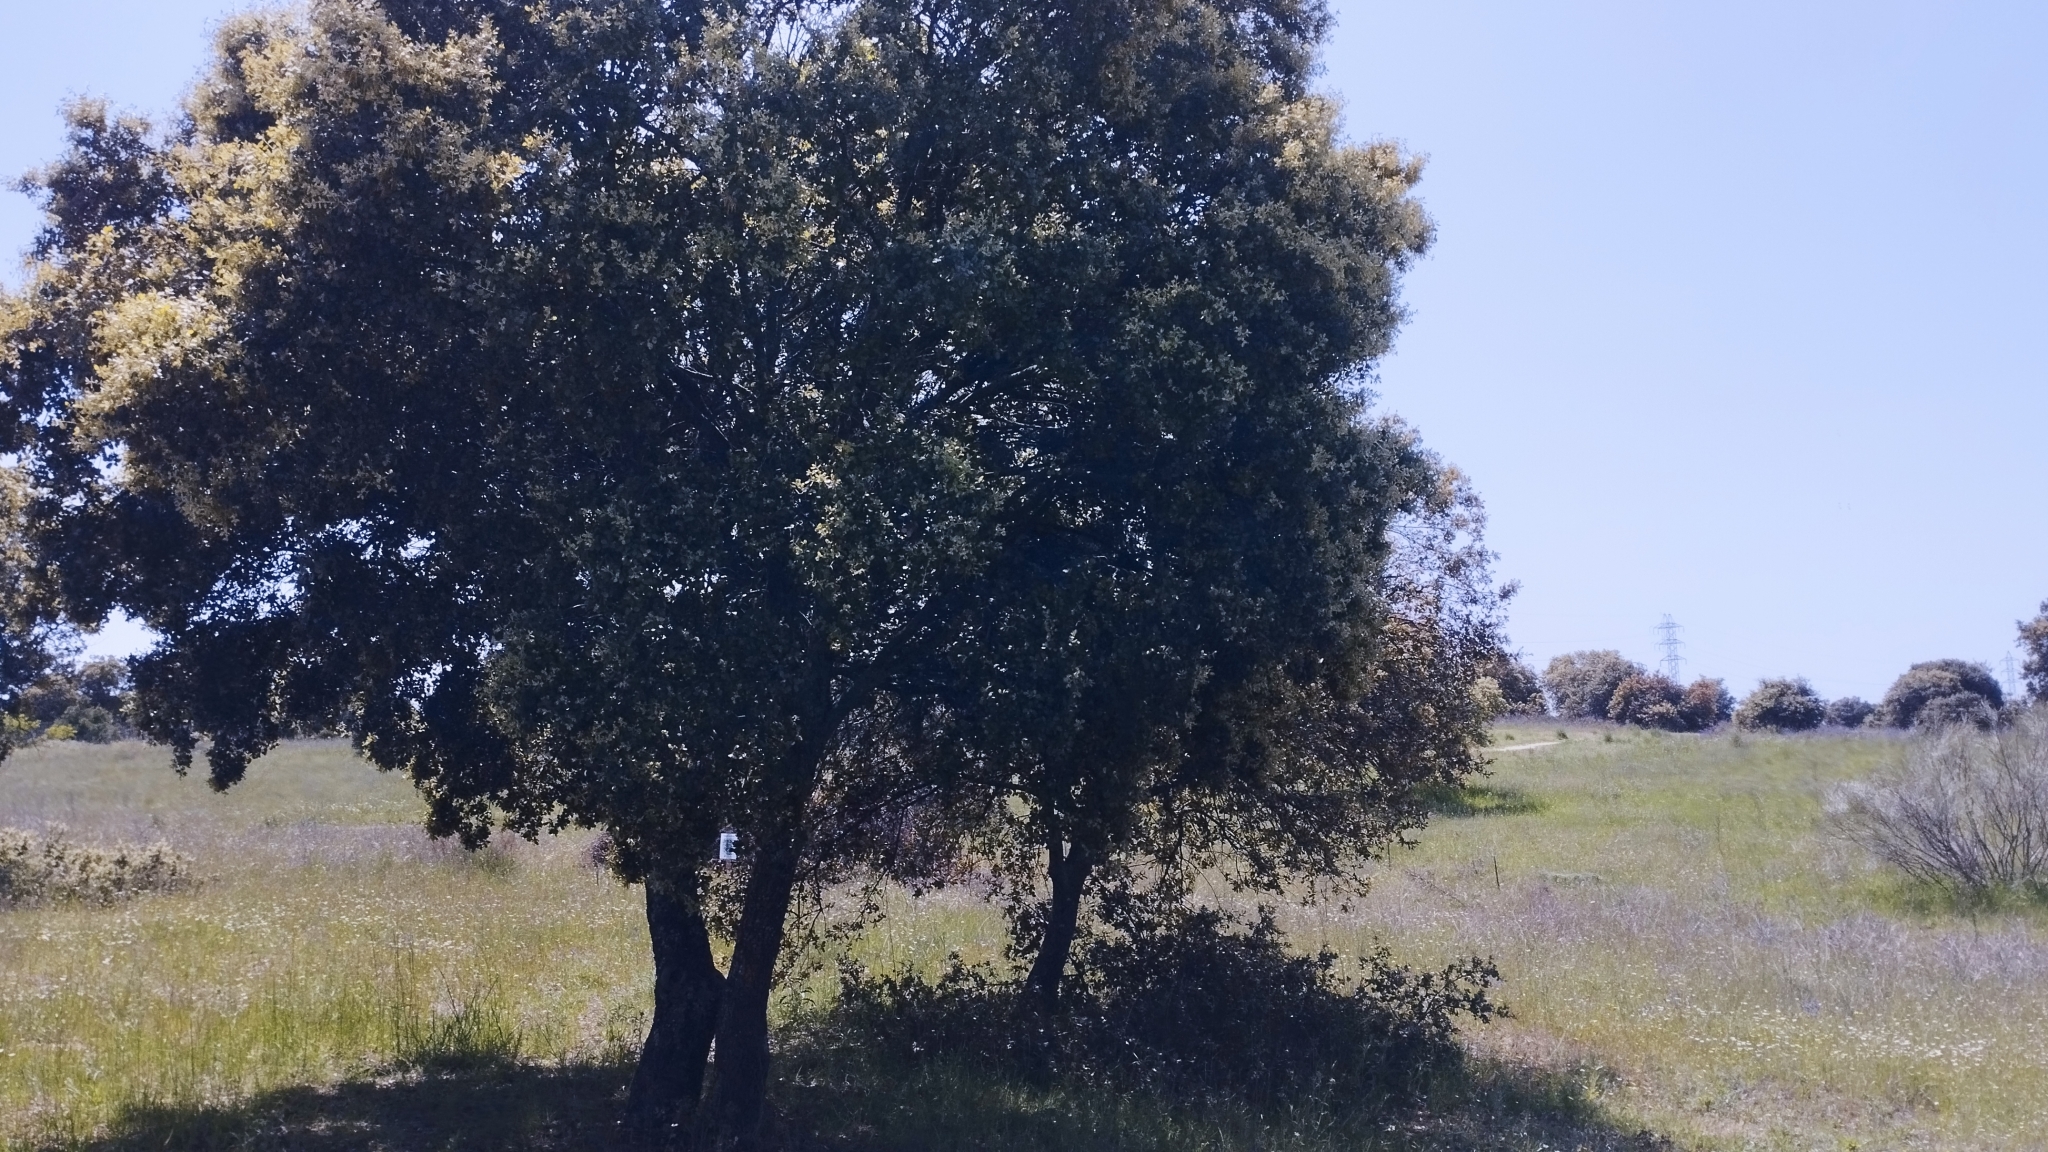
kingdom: Plantae
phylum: Tracheophyta
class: Magnoliopsida
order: Fagales
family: Fagaceae
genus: Quercus
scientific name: Quercus rotundifolia
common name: Holm oak
